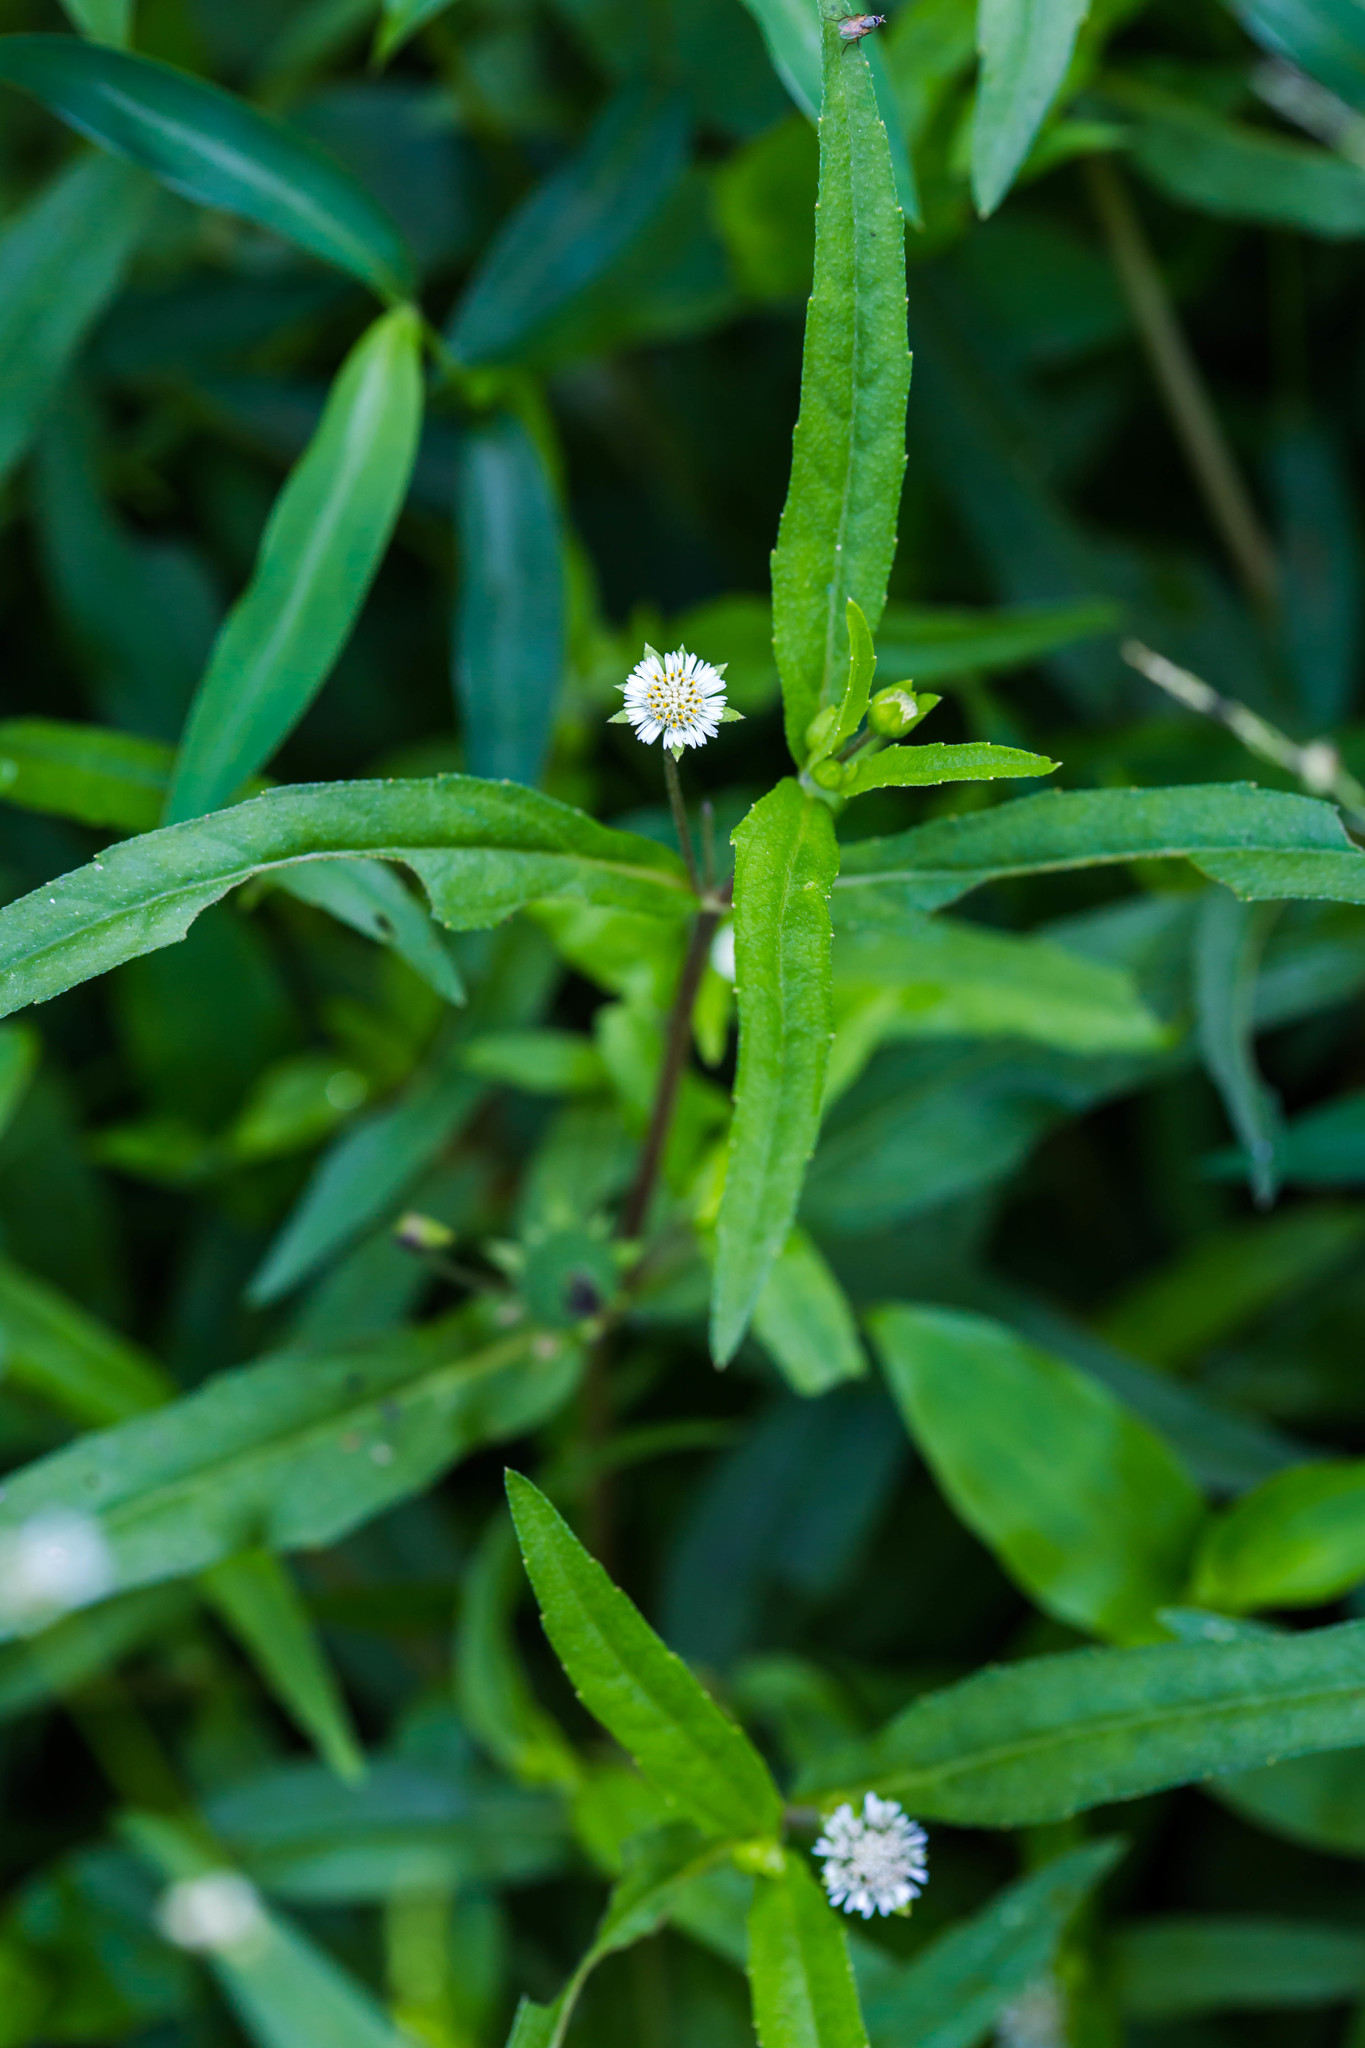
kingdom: Plantae
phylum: Tracheophyta
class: Magnoliopsida
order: Asterales
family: Asteraceae
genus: Eclipta
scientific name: Eclipta prostrata
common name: False daisy
